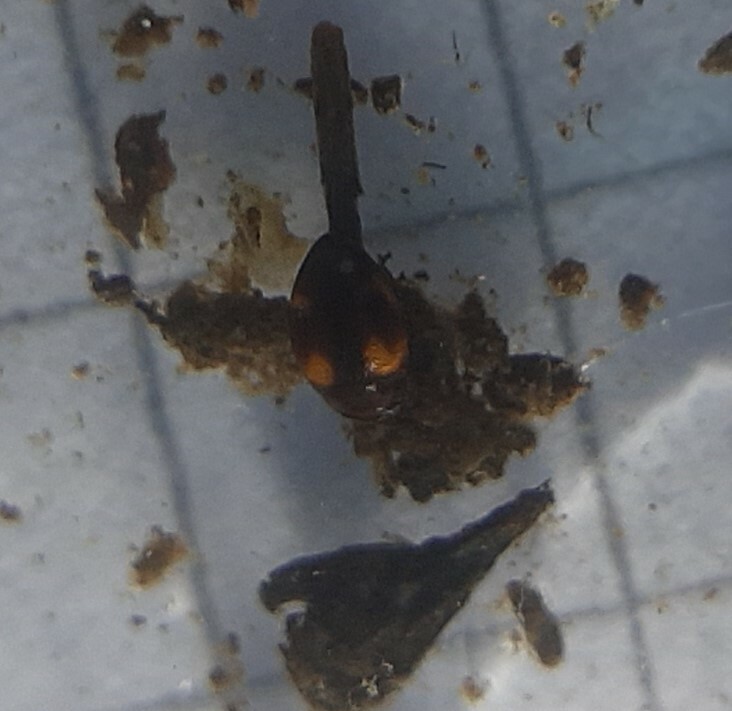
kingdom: Animalia
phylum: Arthropoda
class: Insecta
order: Coleoptera
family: Dytiscidae
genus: Clemnius
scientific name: Clemnius decoratus
